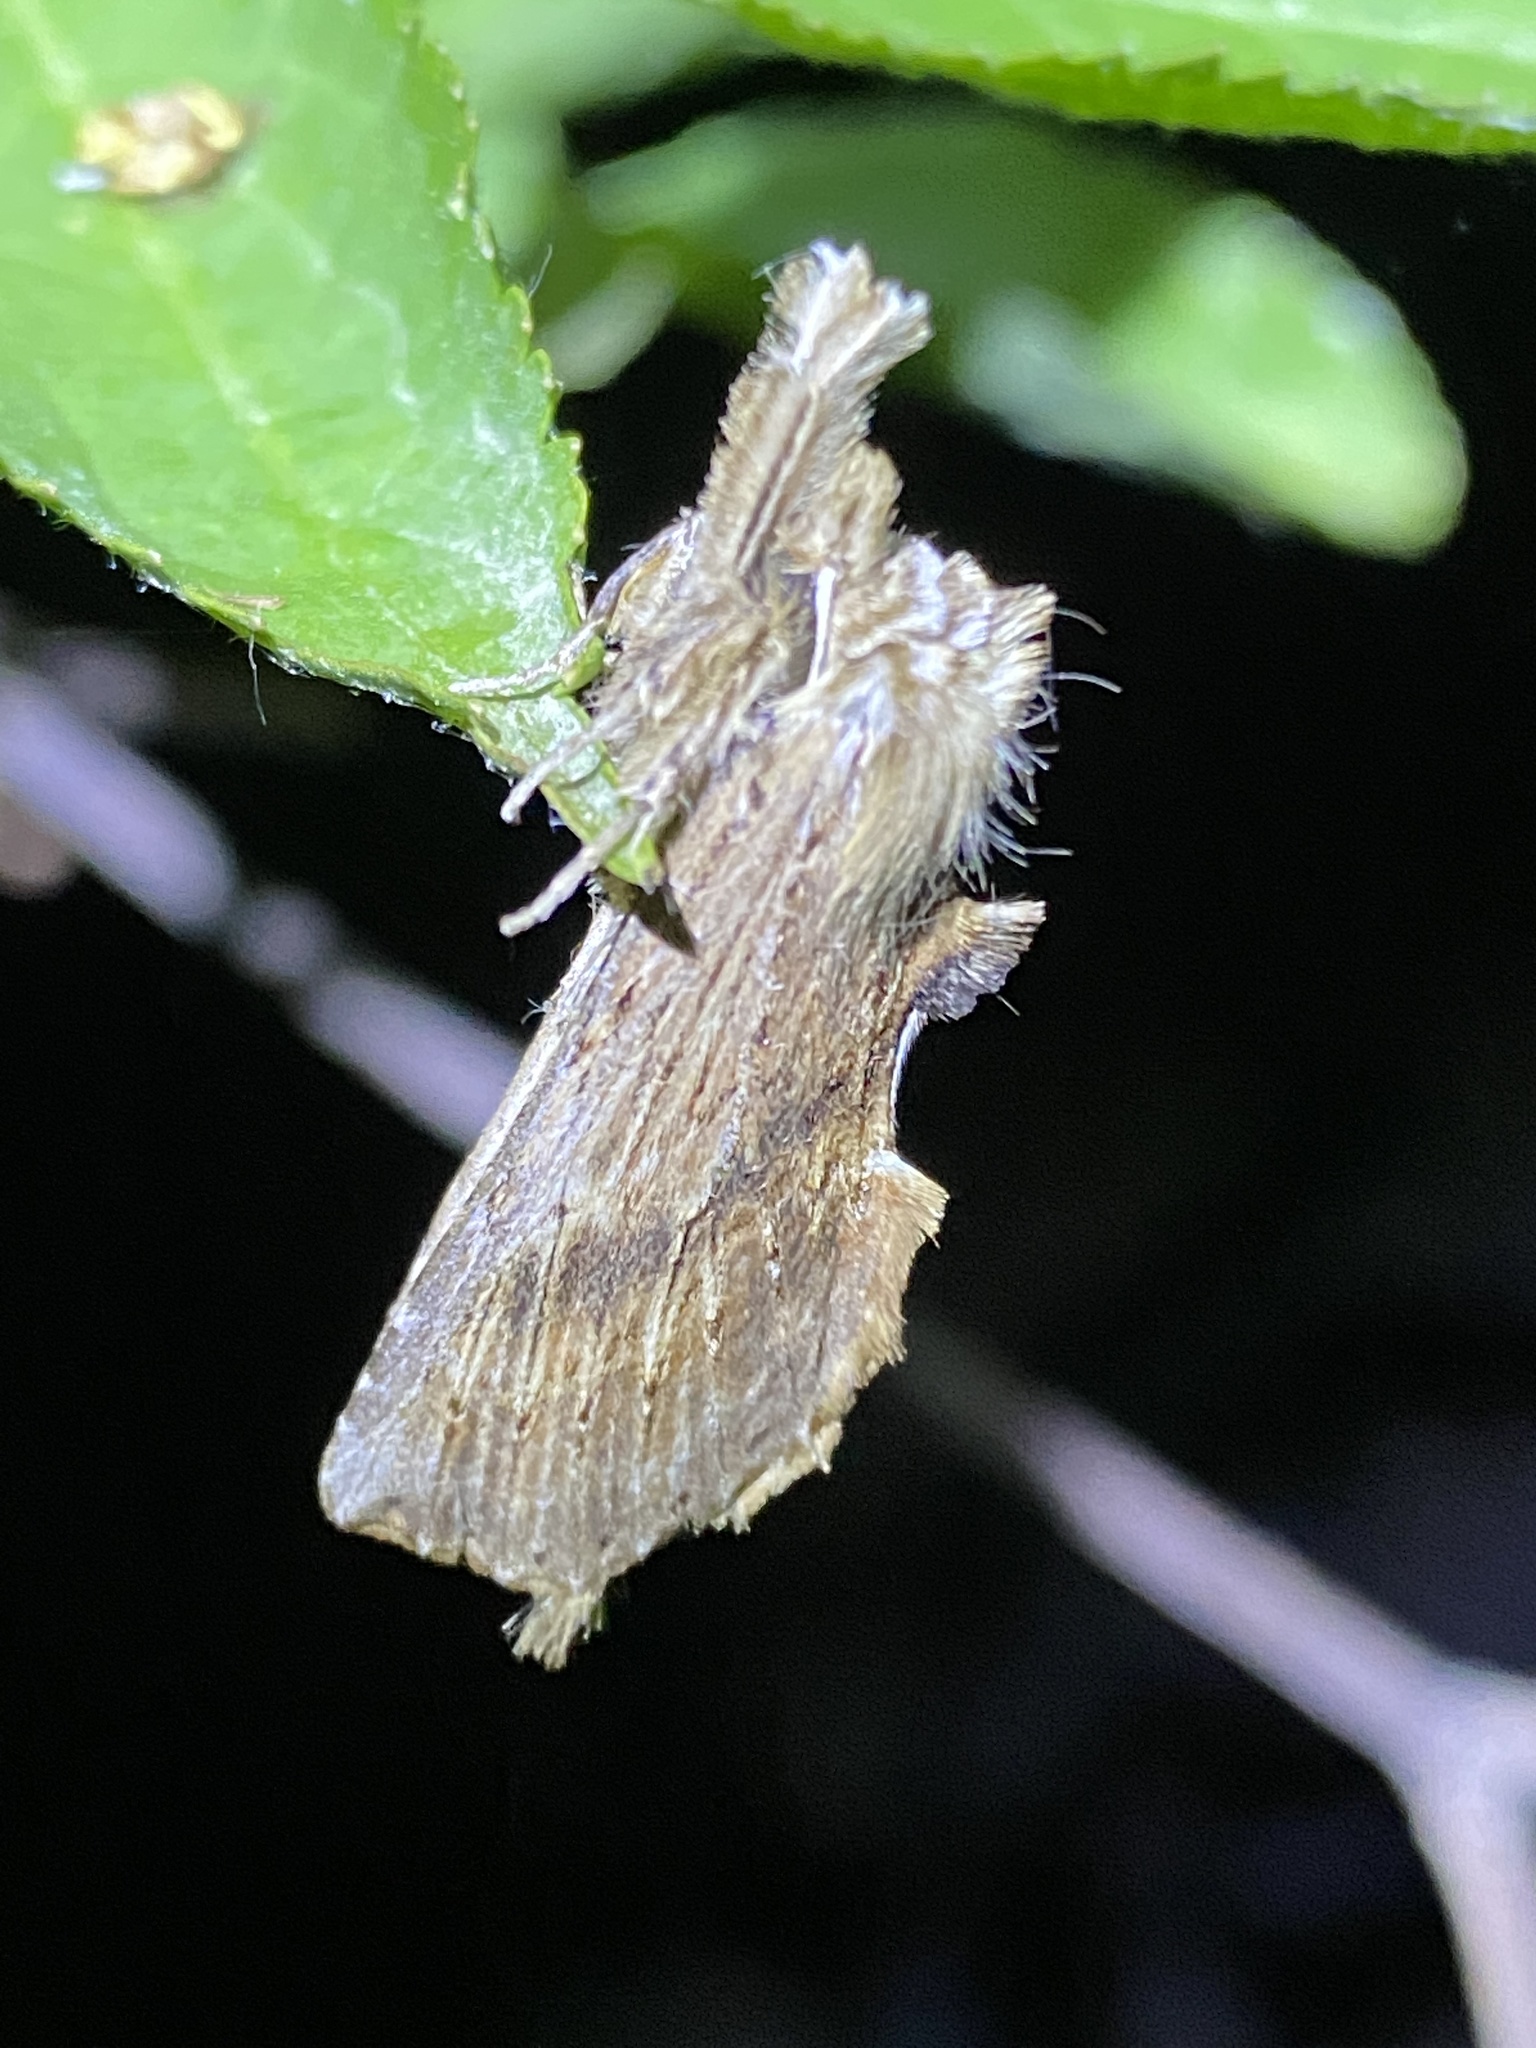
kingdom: Animalia
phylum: Arthropoda
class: Insecta
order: Lepidoptera
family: Notodontidae
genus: Pterostoma
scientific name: Pterostoma palpina
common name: Pale prominent
